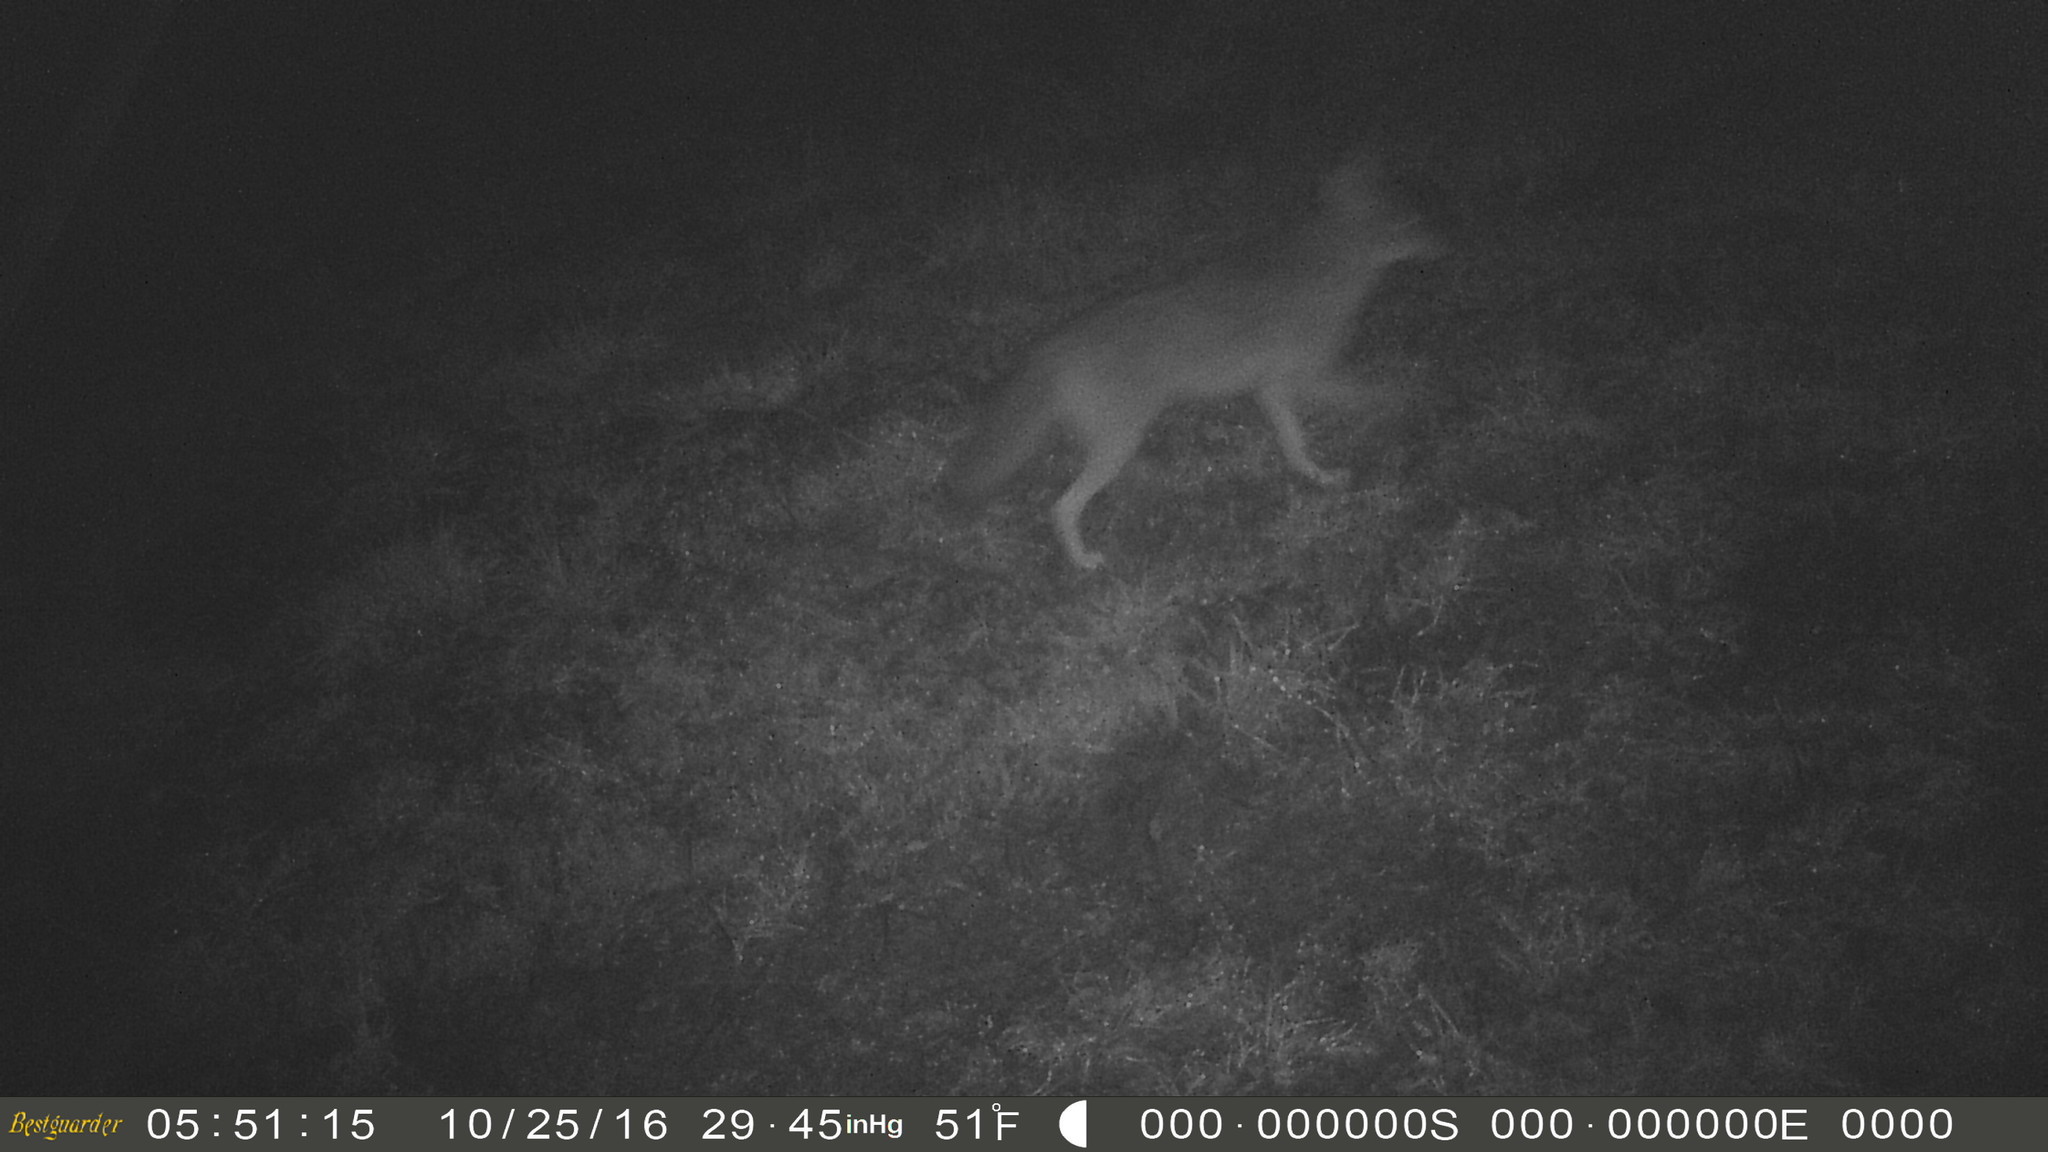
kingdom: Animalia
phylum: Chordata
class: Mammalia
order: Carnivora
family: Canidae
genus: Canis
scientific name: Canis latrans
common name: Coyote
